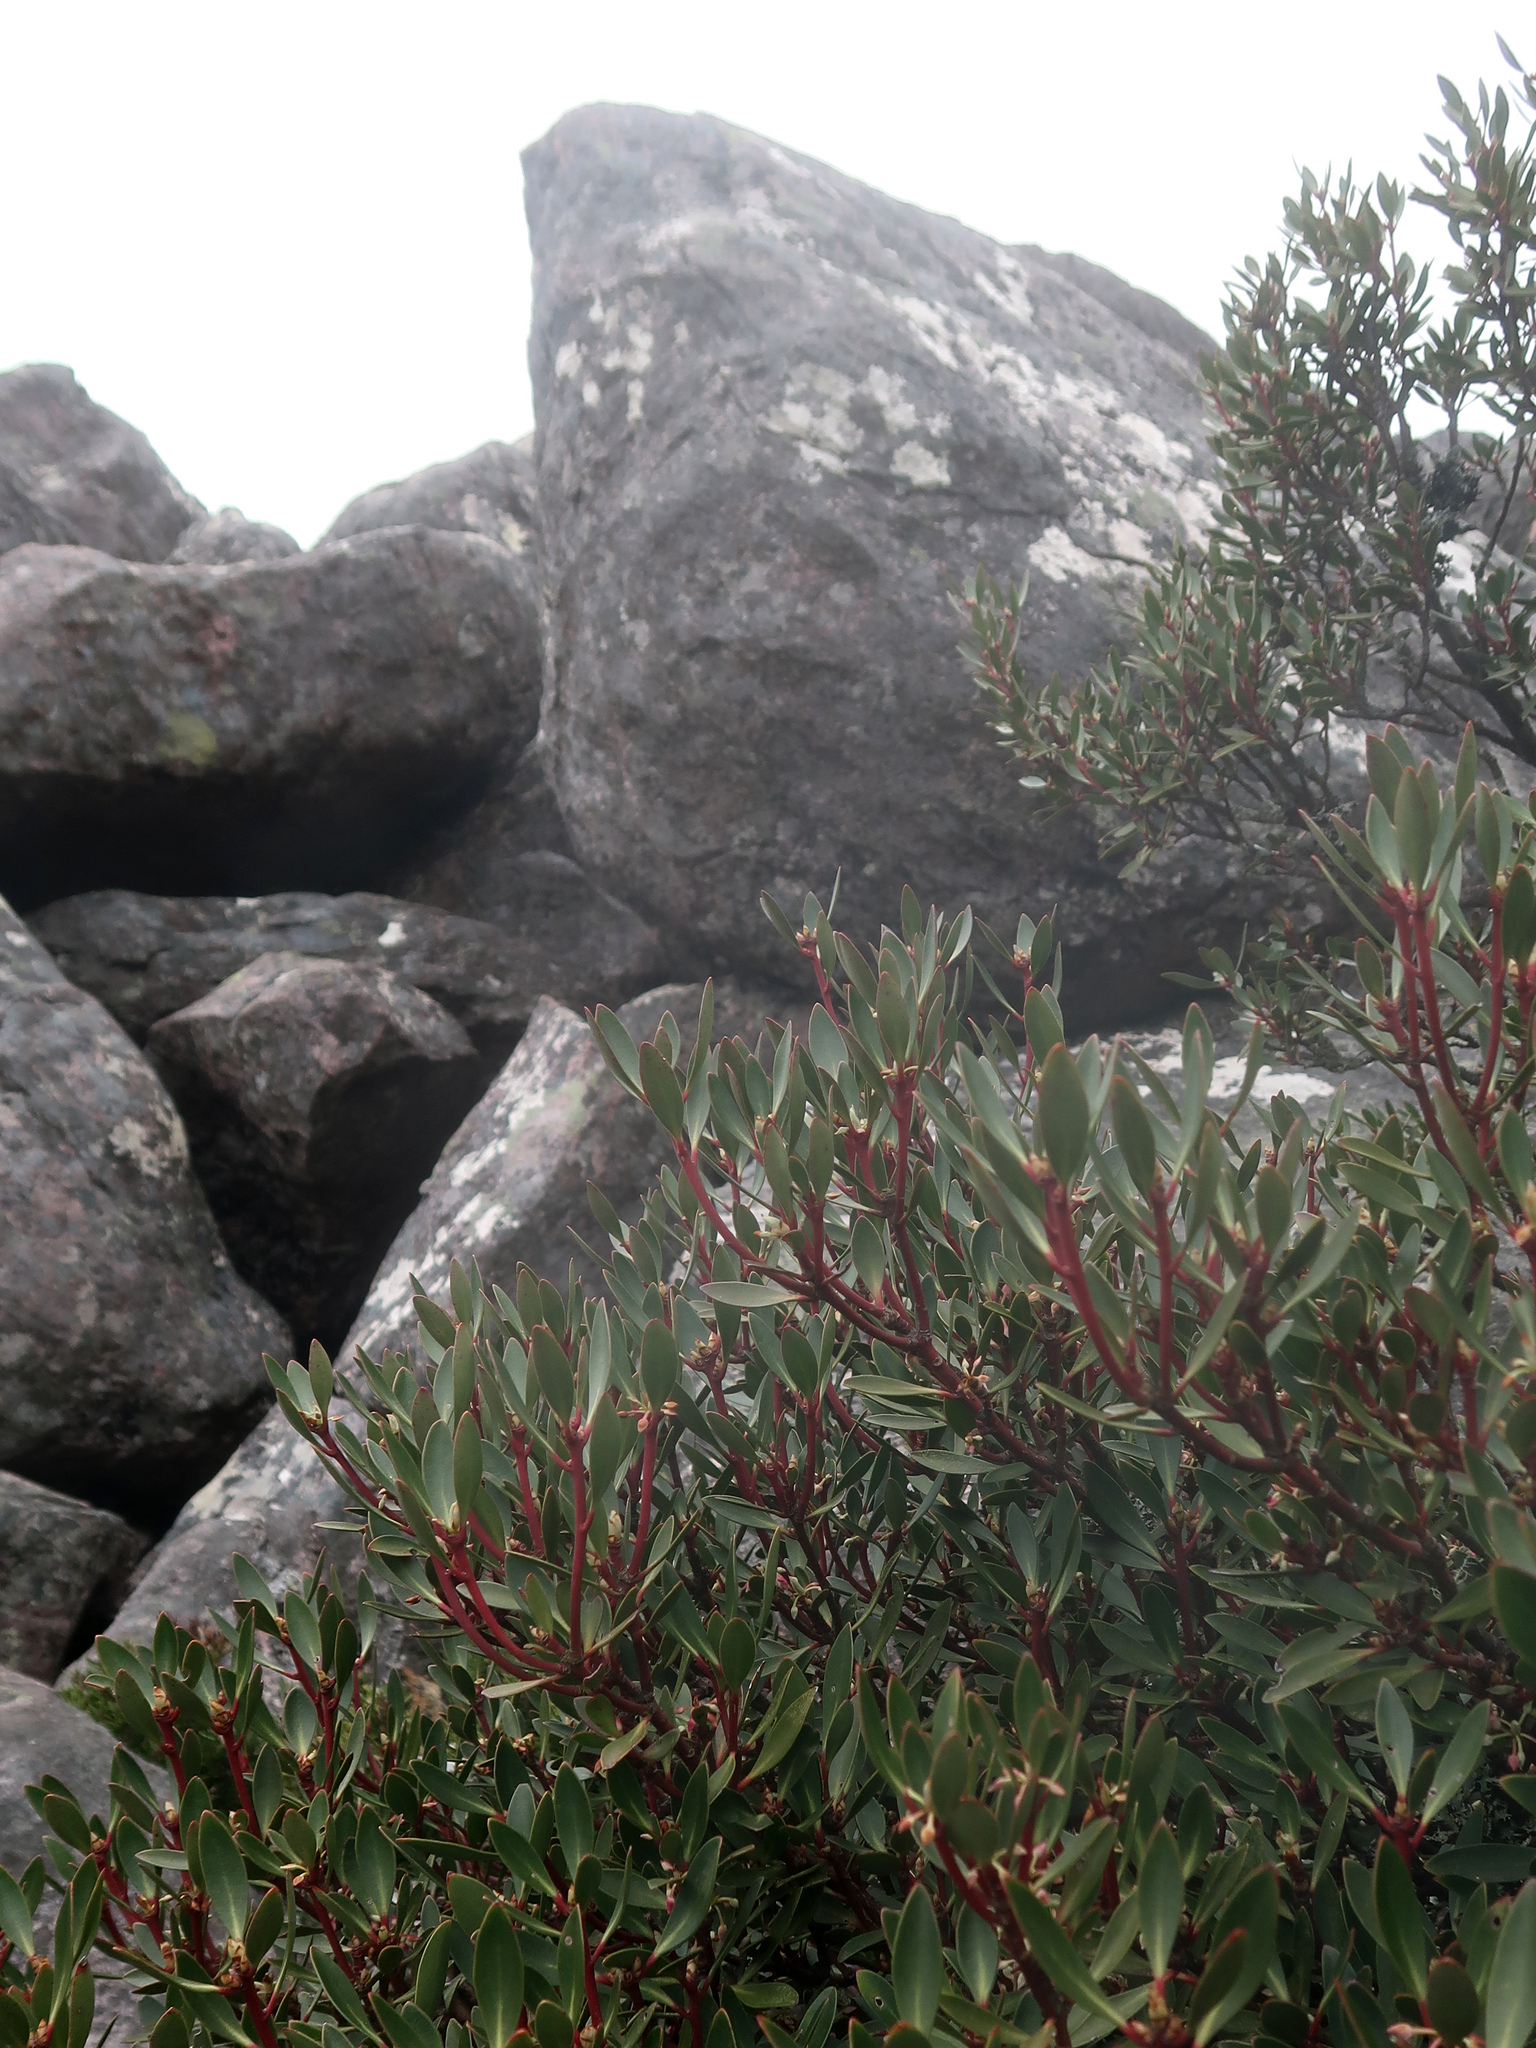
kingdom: Plantae
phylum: Tracheophyta
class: Magnoliopsida
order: Canellales
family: Winteraceae
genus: Drimys
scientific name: Drimys aromatica
